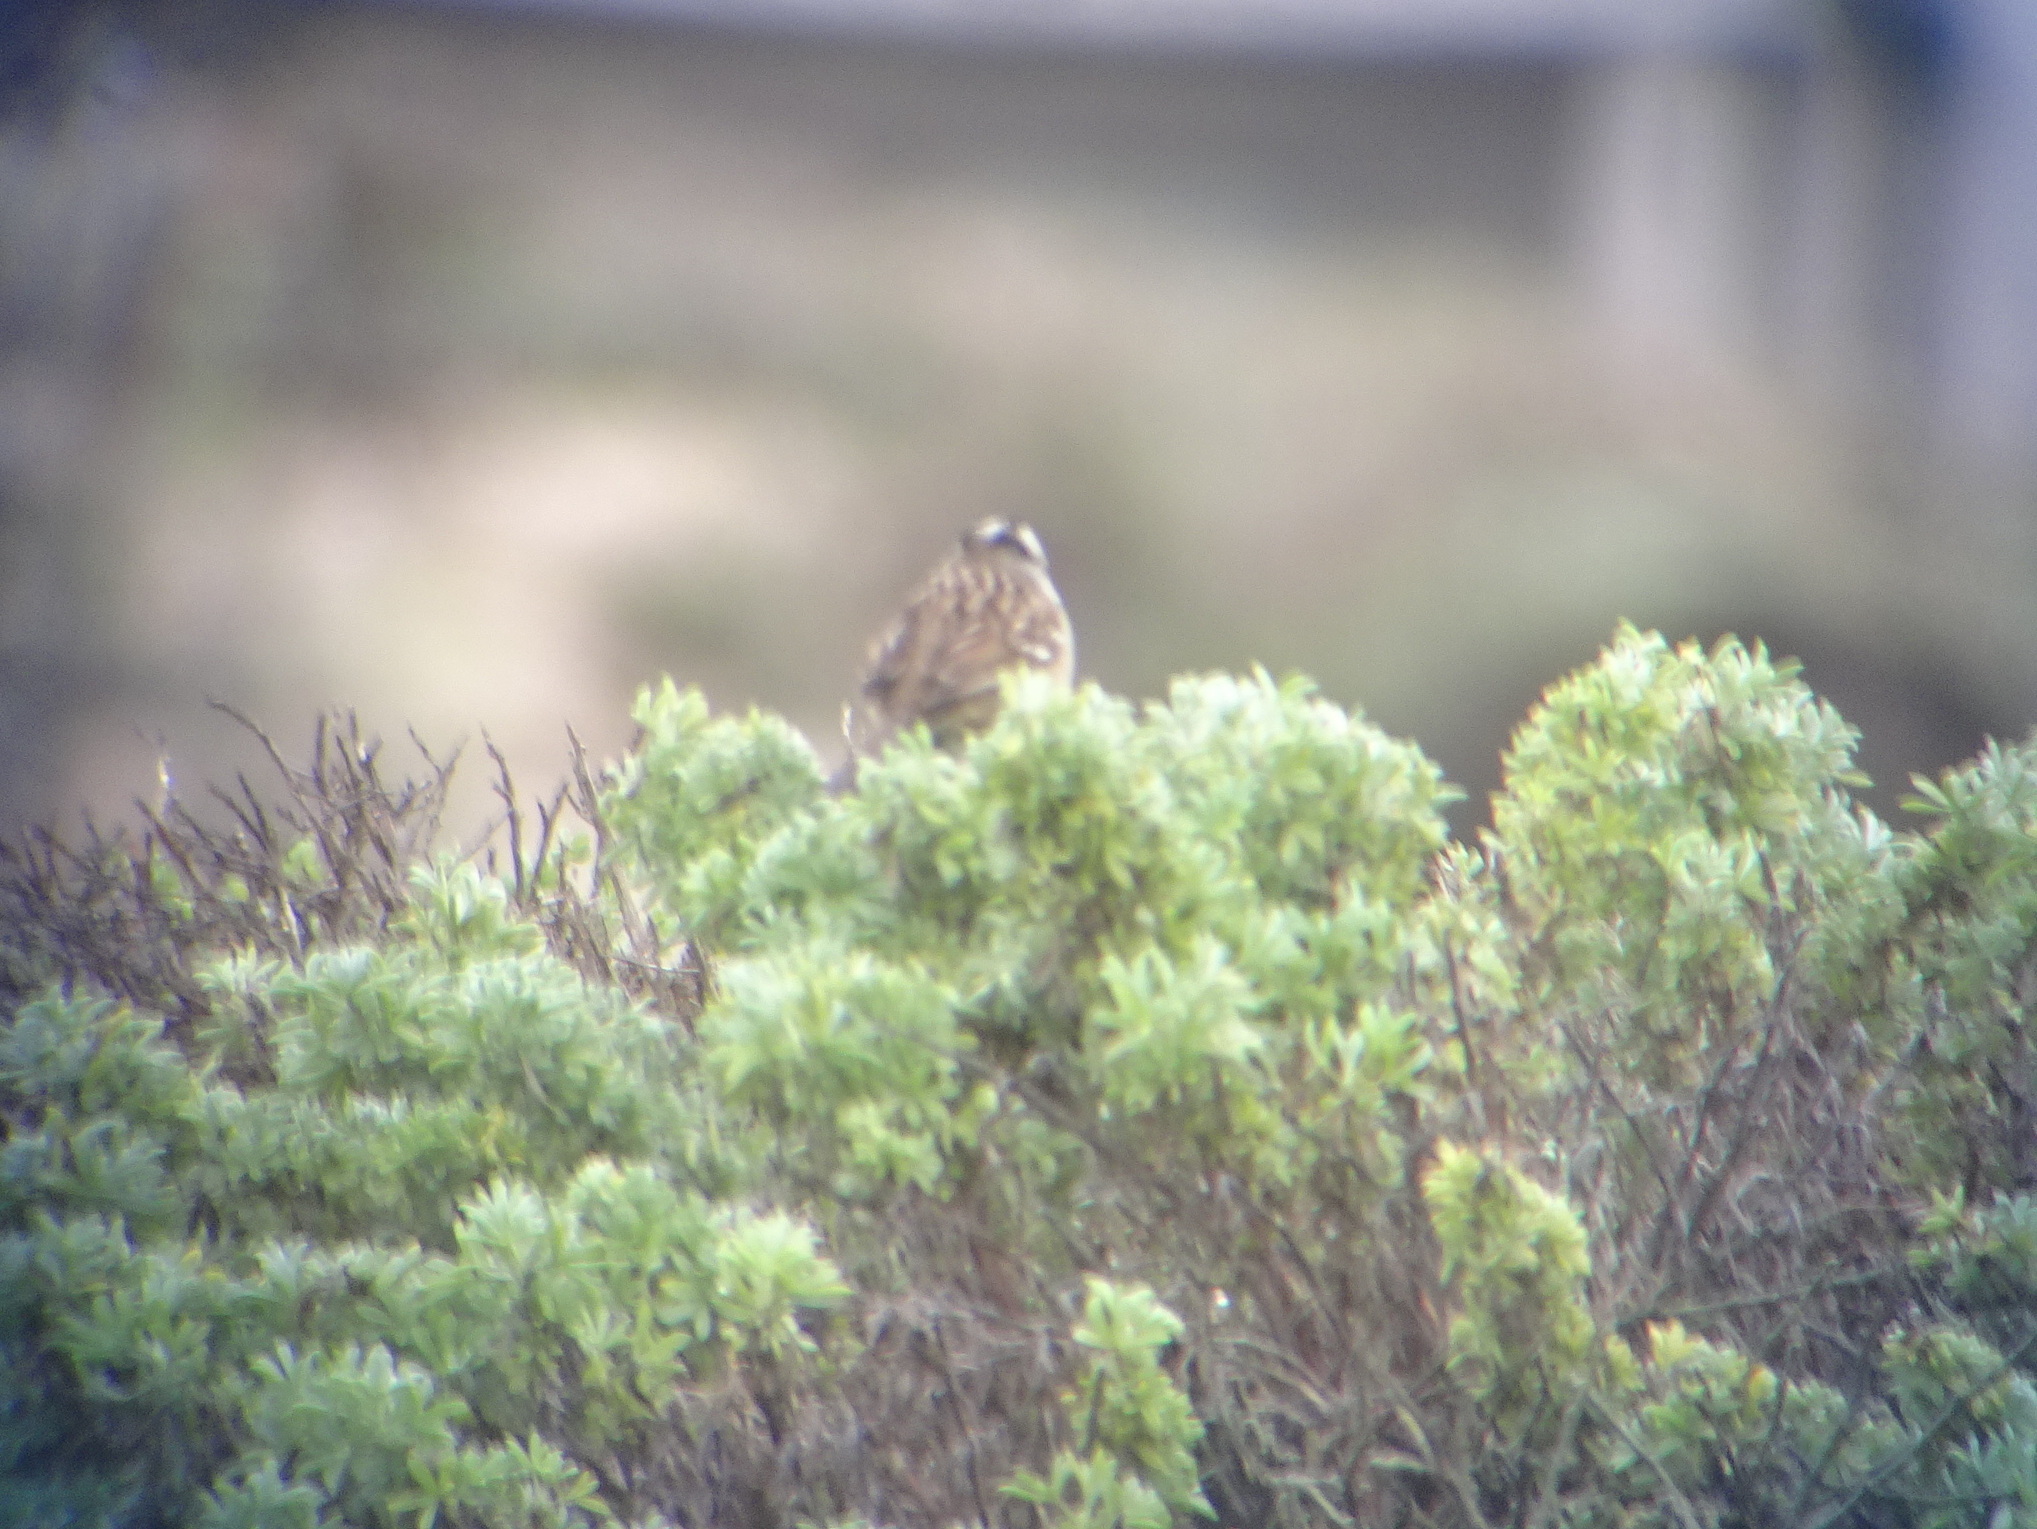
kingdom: Animalia
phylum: Chordata
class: Aves
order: Passeriformes
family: Passerellidae
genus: Zonotrichia
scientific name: Zonotrichia leucophrys
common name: White-crowned sparrow
